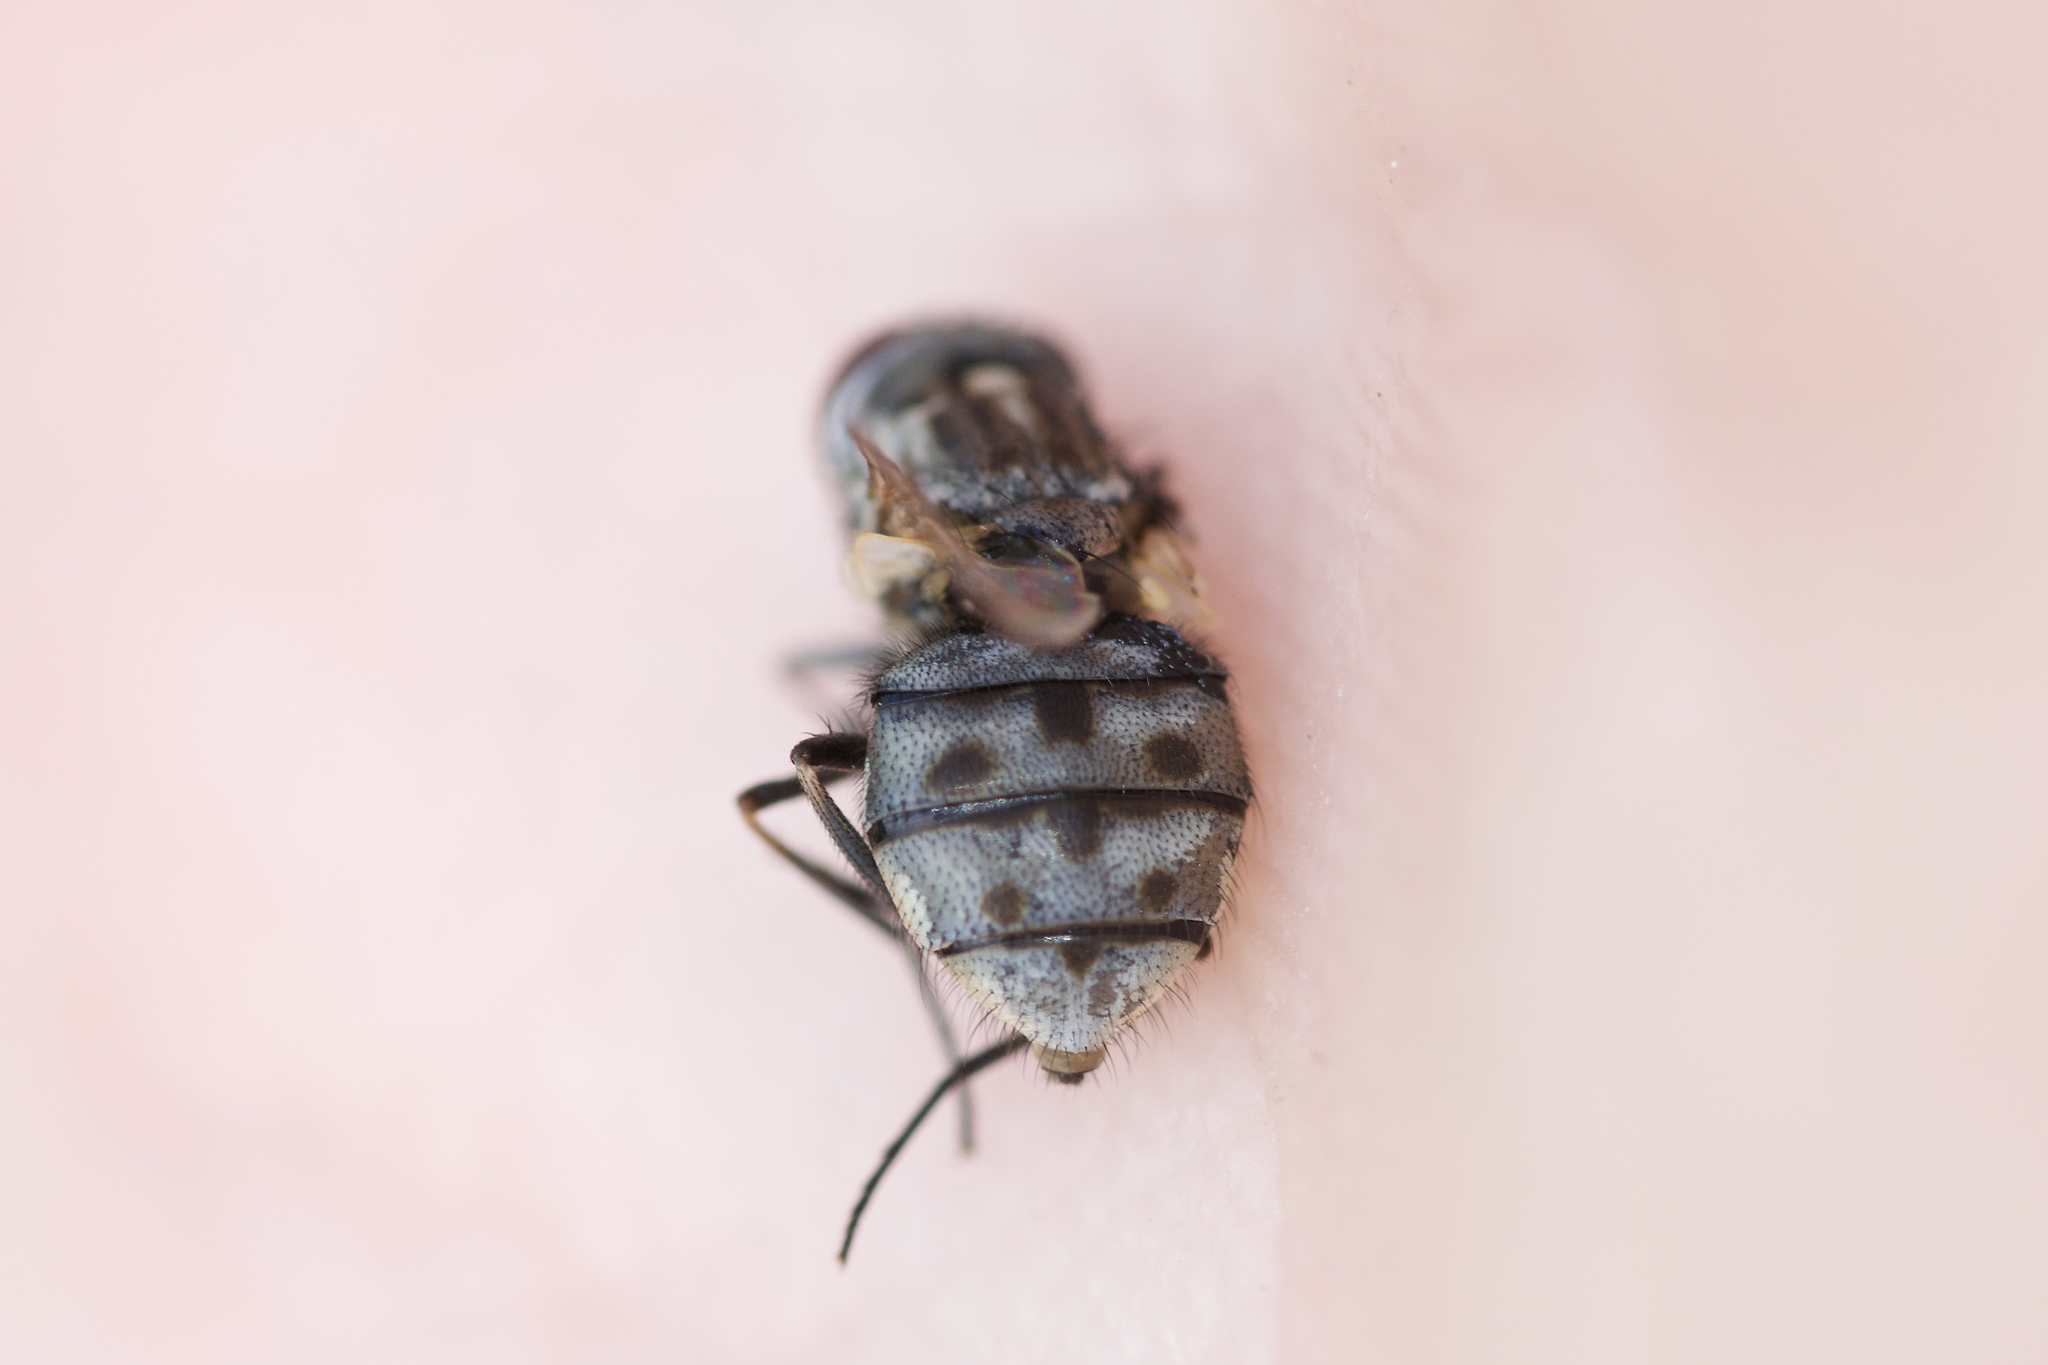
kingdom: Animalia
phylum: Arthropoda
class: Insecta
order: Diptera
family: Muscidae
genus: Stomoxys
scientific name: Stomoxys calcitrans
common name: Stable fly
